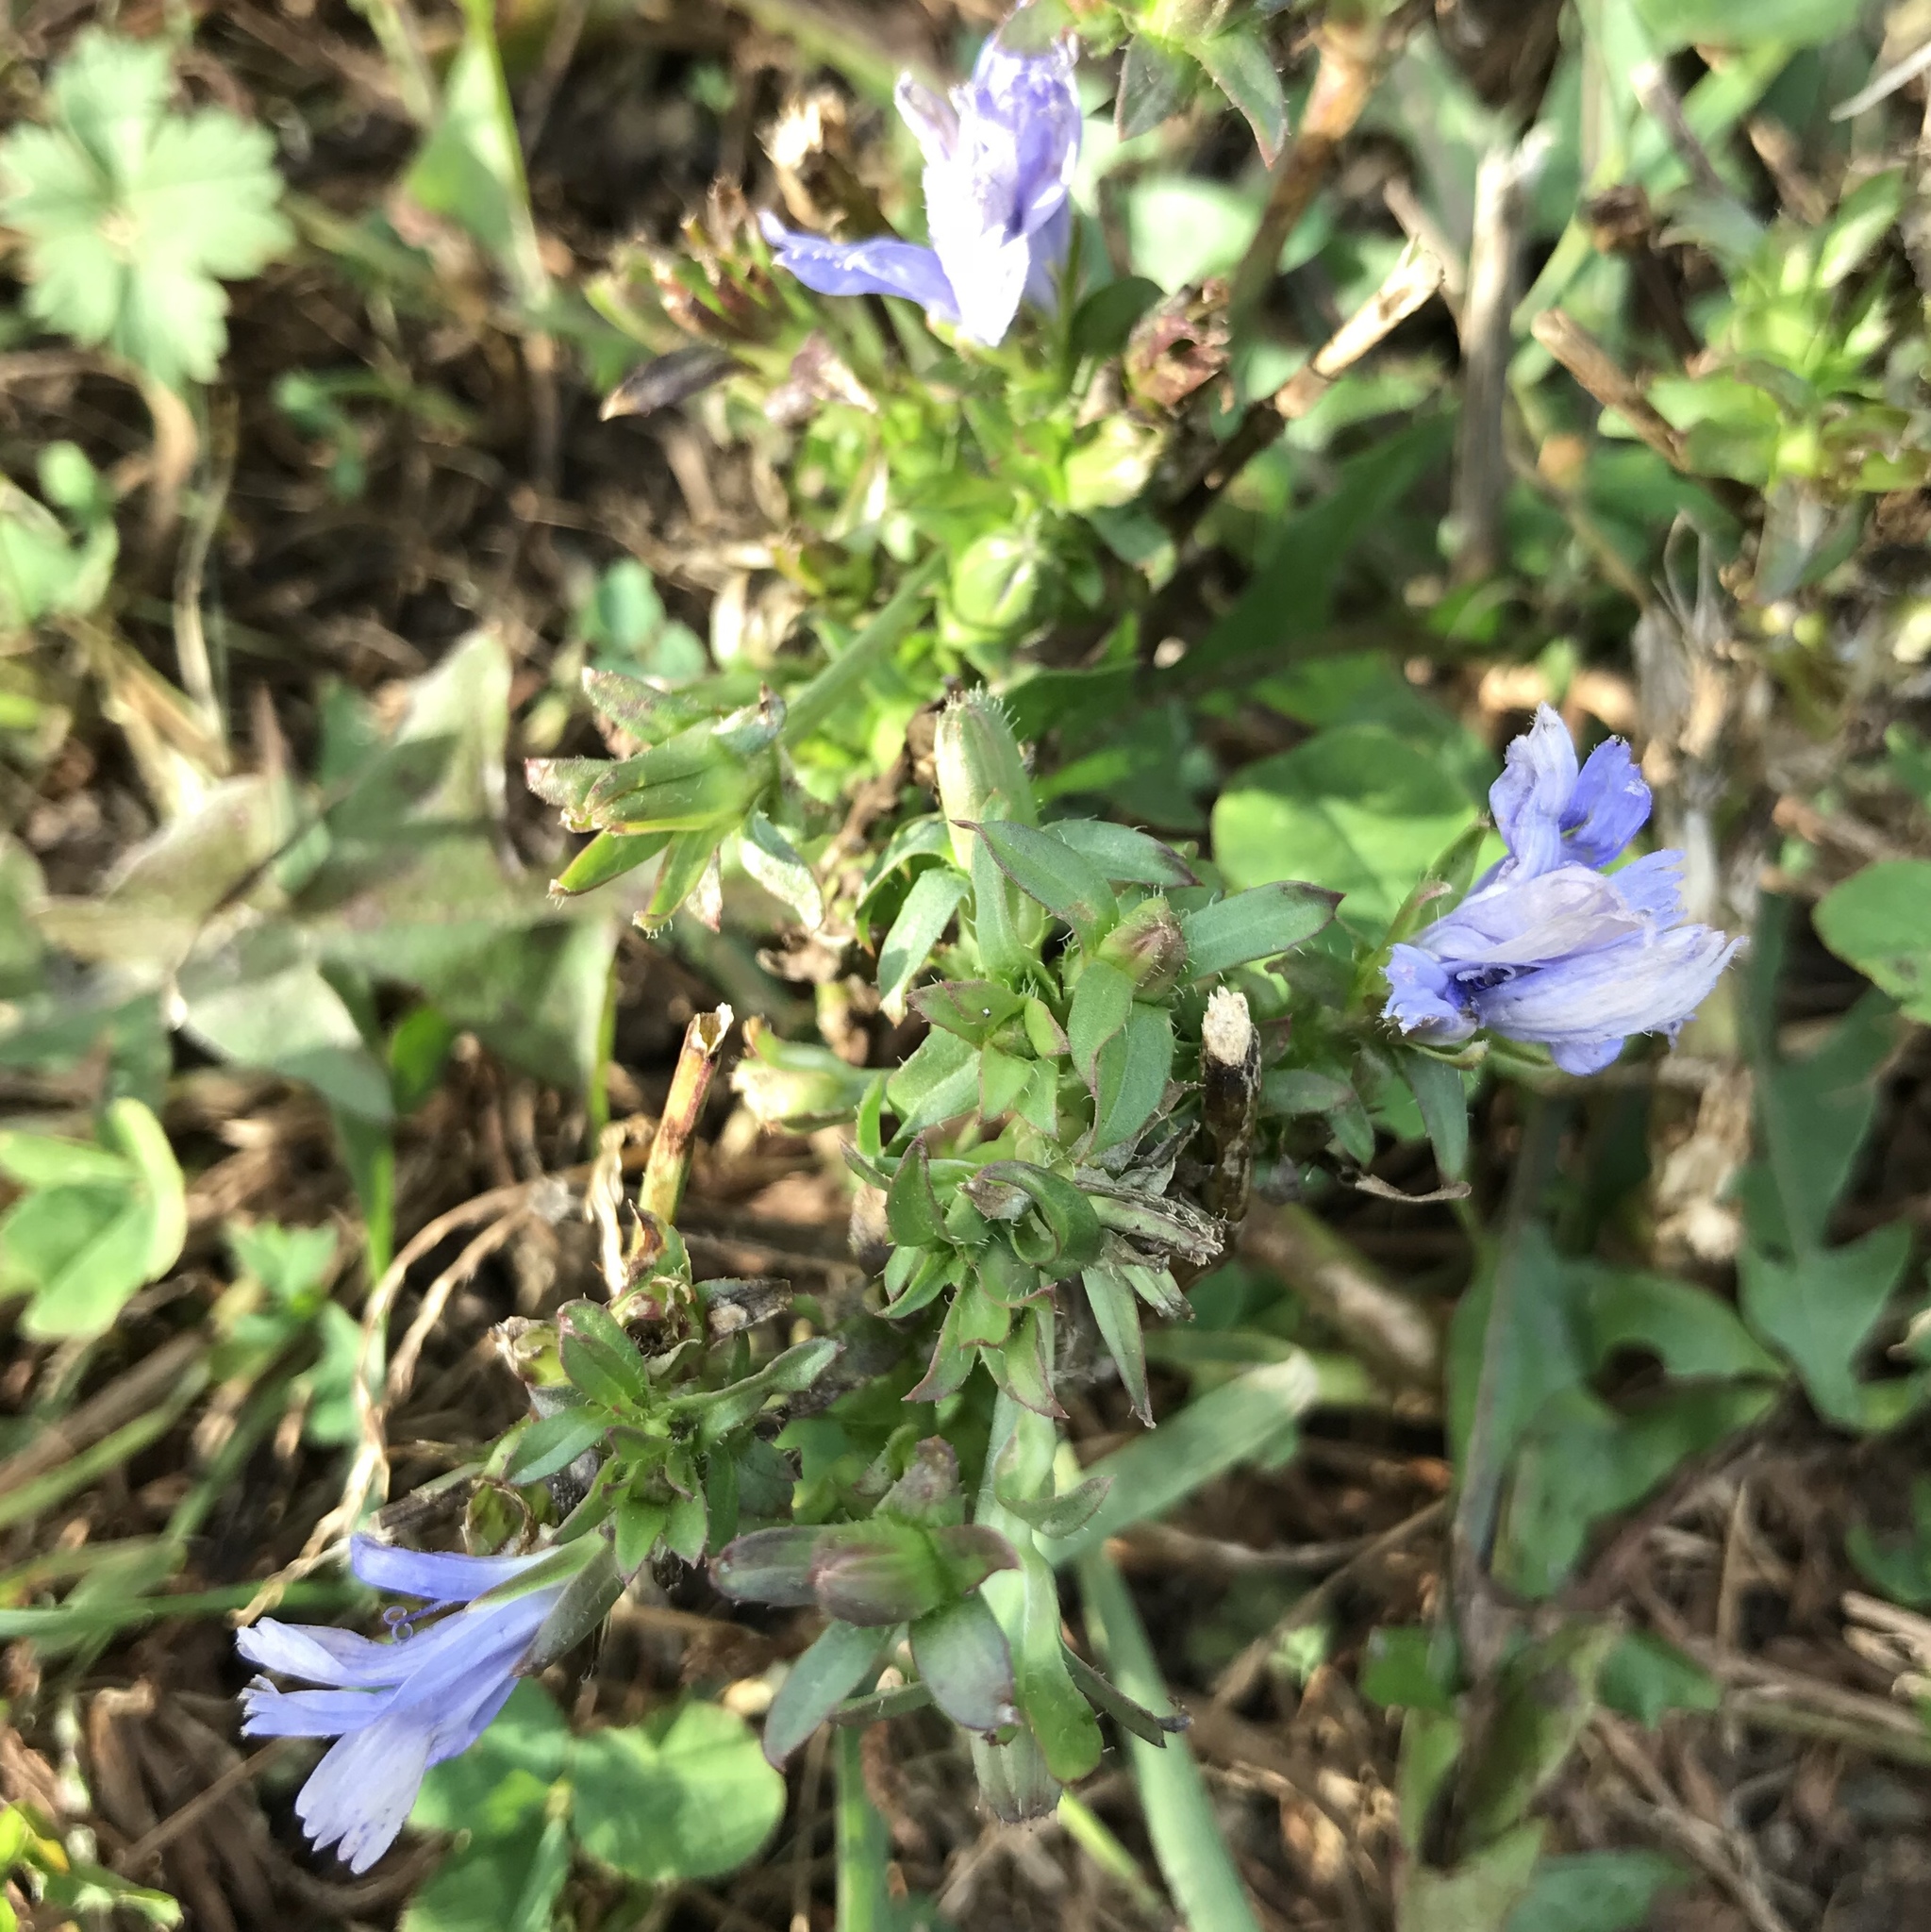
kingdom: Plantae
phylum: Tracheophyta
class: Magnoliopsida
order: Asterales
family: Asteraceae
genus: Cichorium
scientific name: Cichorium intybus
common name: Chicory
